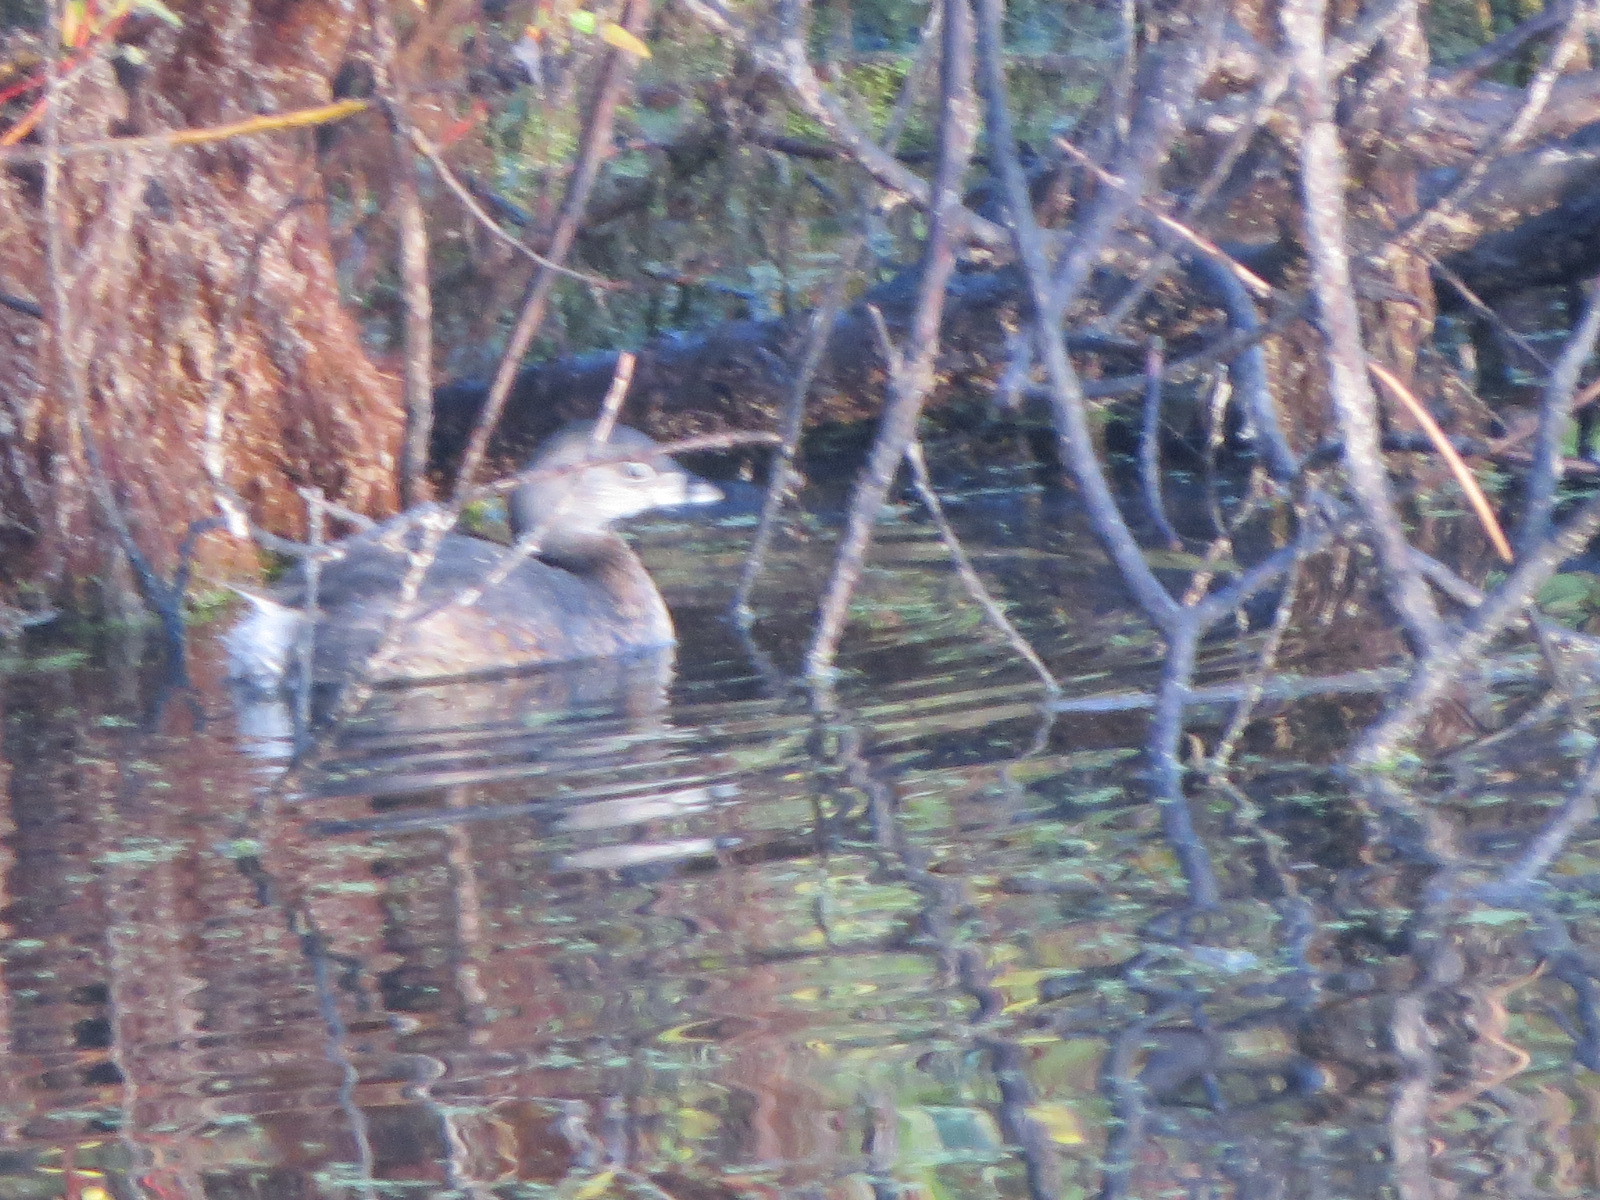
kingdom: Animalia
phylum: Chordata
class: Aves
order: Podicipediformes
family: Podicipedidae
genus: Podilymbus
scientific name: Podilymbus podiceps
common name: Pied-billed grebe
